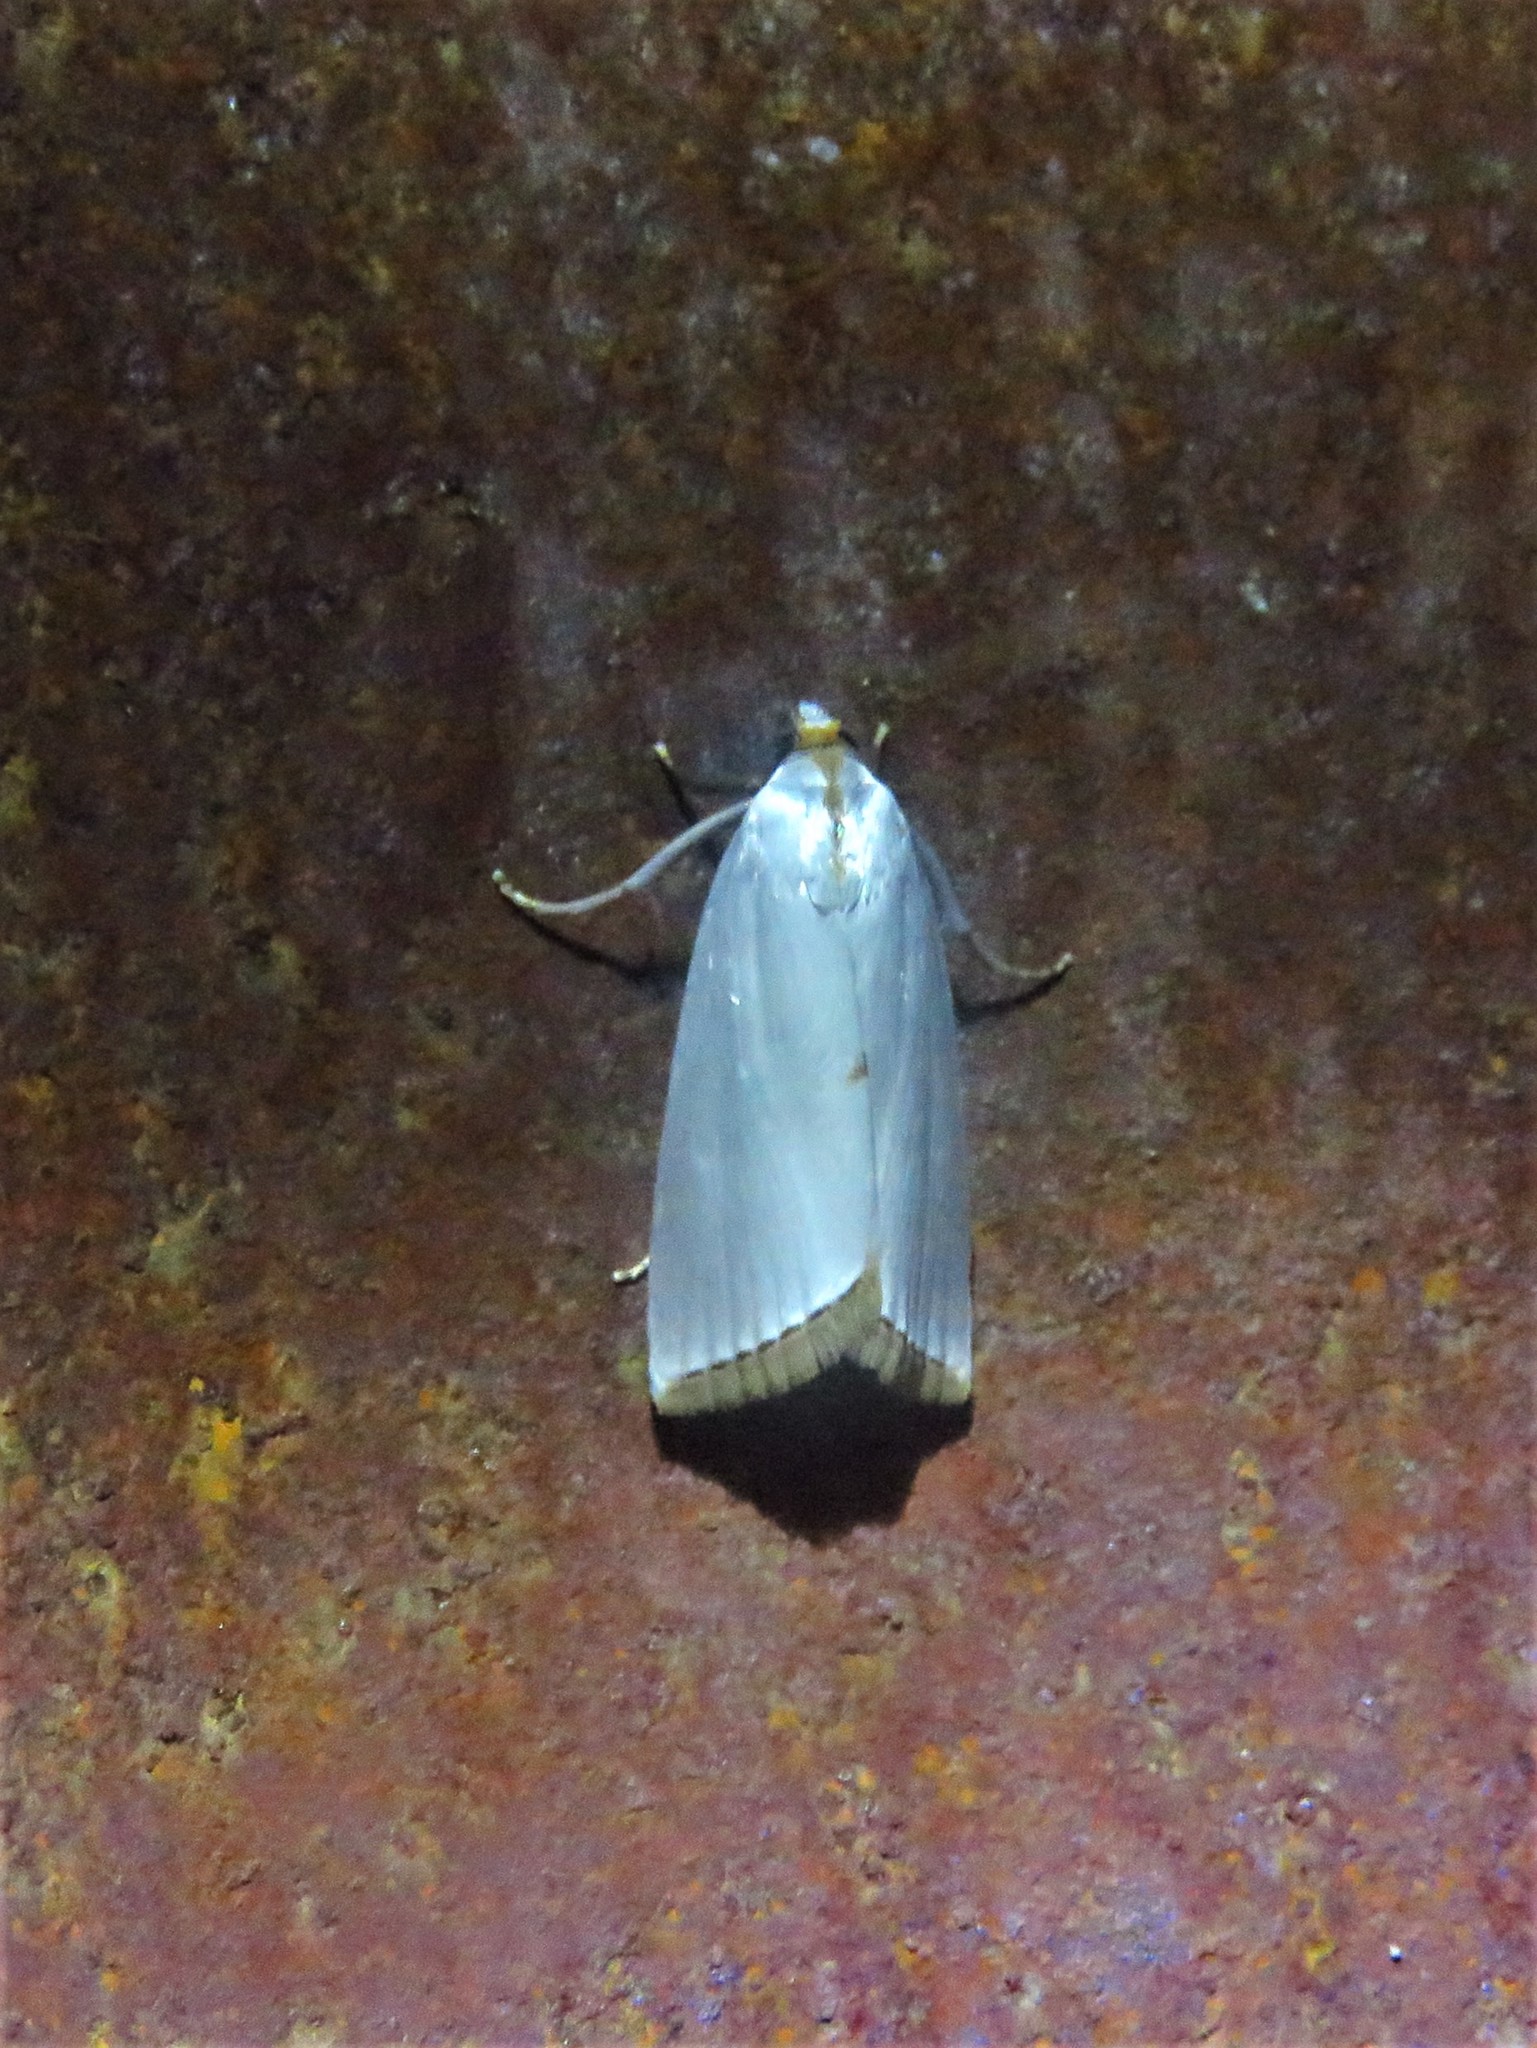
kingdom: Animalia
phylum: Arthropoda
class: Insecta
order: Lepidoptera
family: Crambidae
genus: Argyria
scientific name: Argyria nivalis
